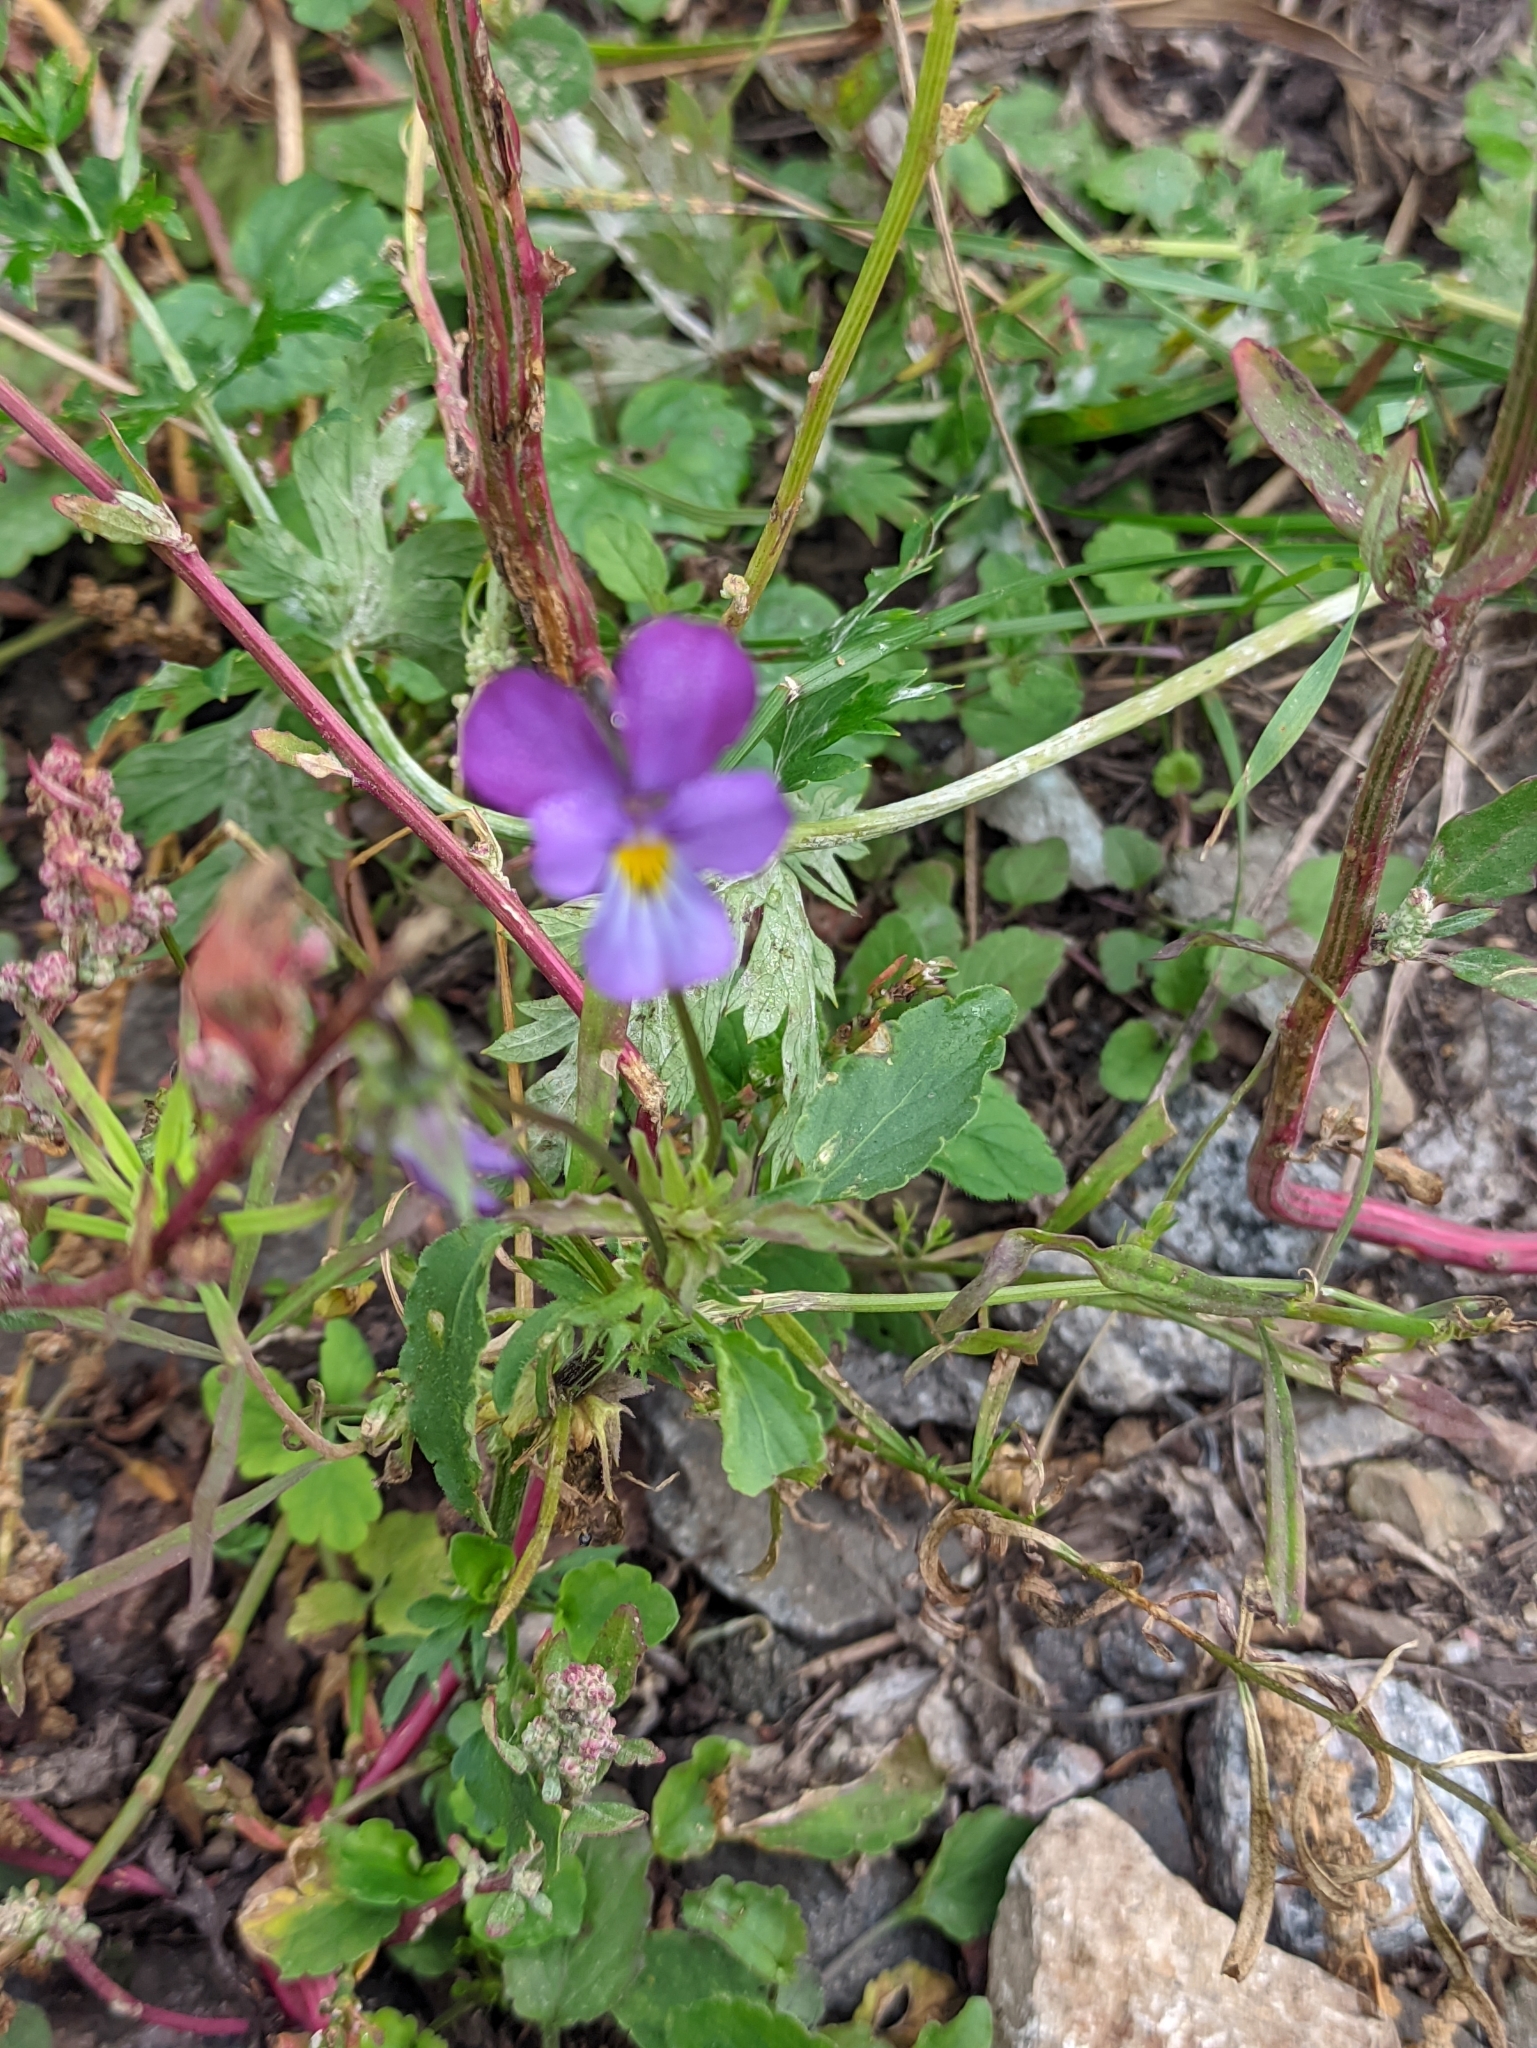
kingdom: Plantae
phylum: Tracheophyta
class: Magnoliopsida
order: Malpighiales
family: Violaceae
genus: Viola
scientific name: Viola tricolor
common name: Pansy
